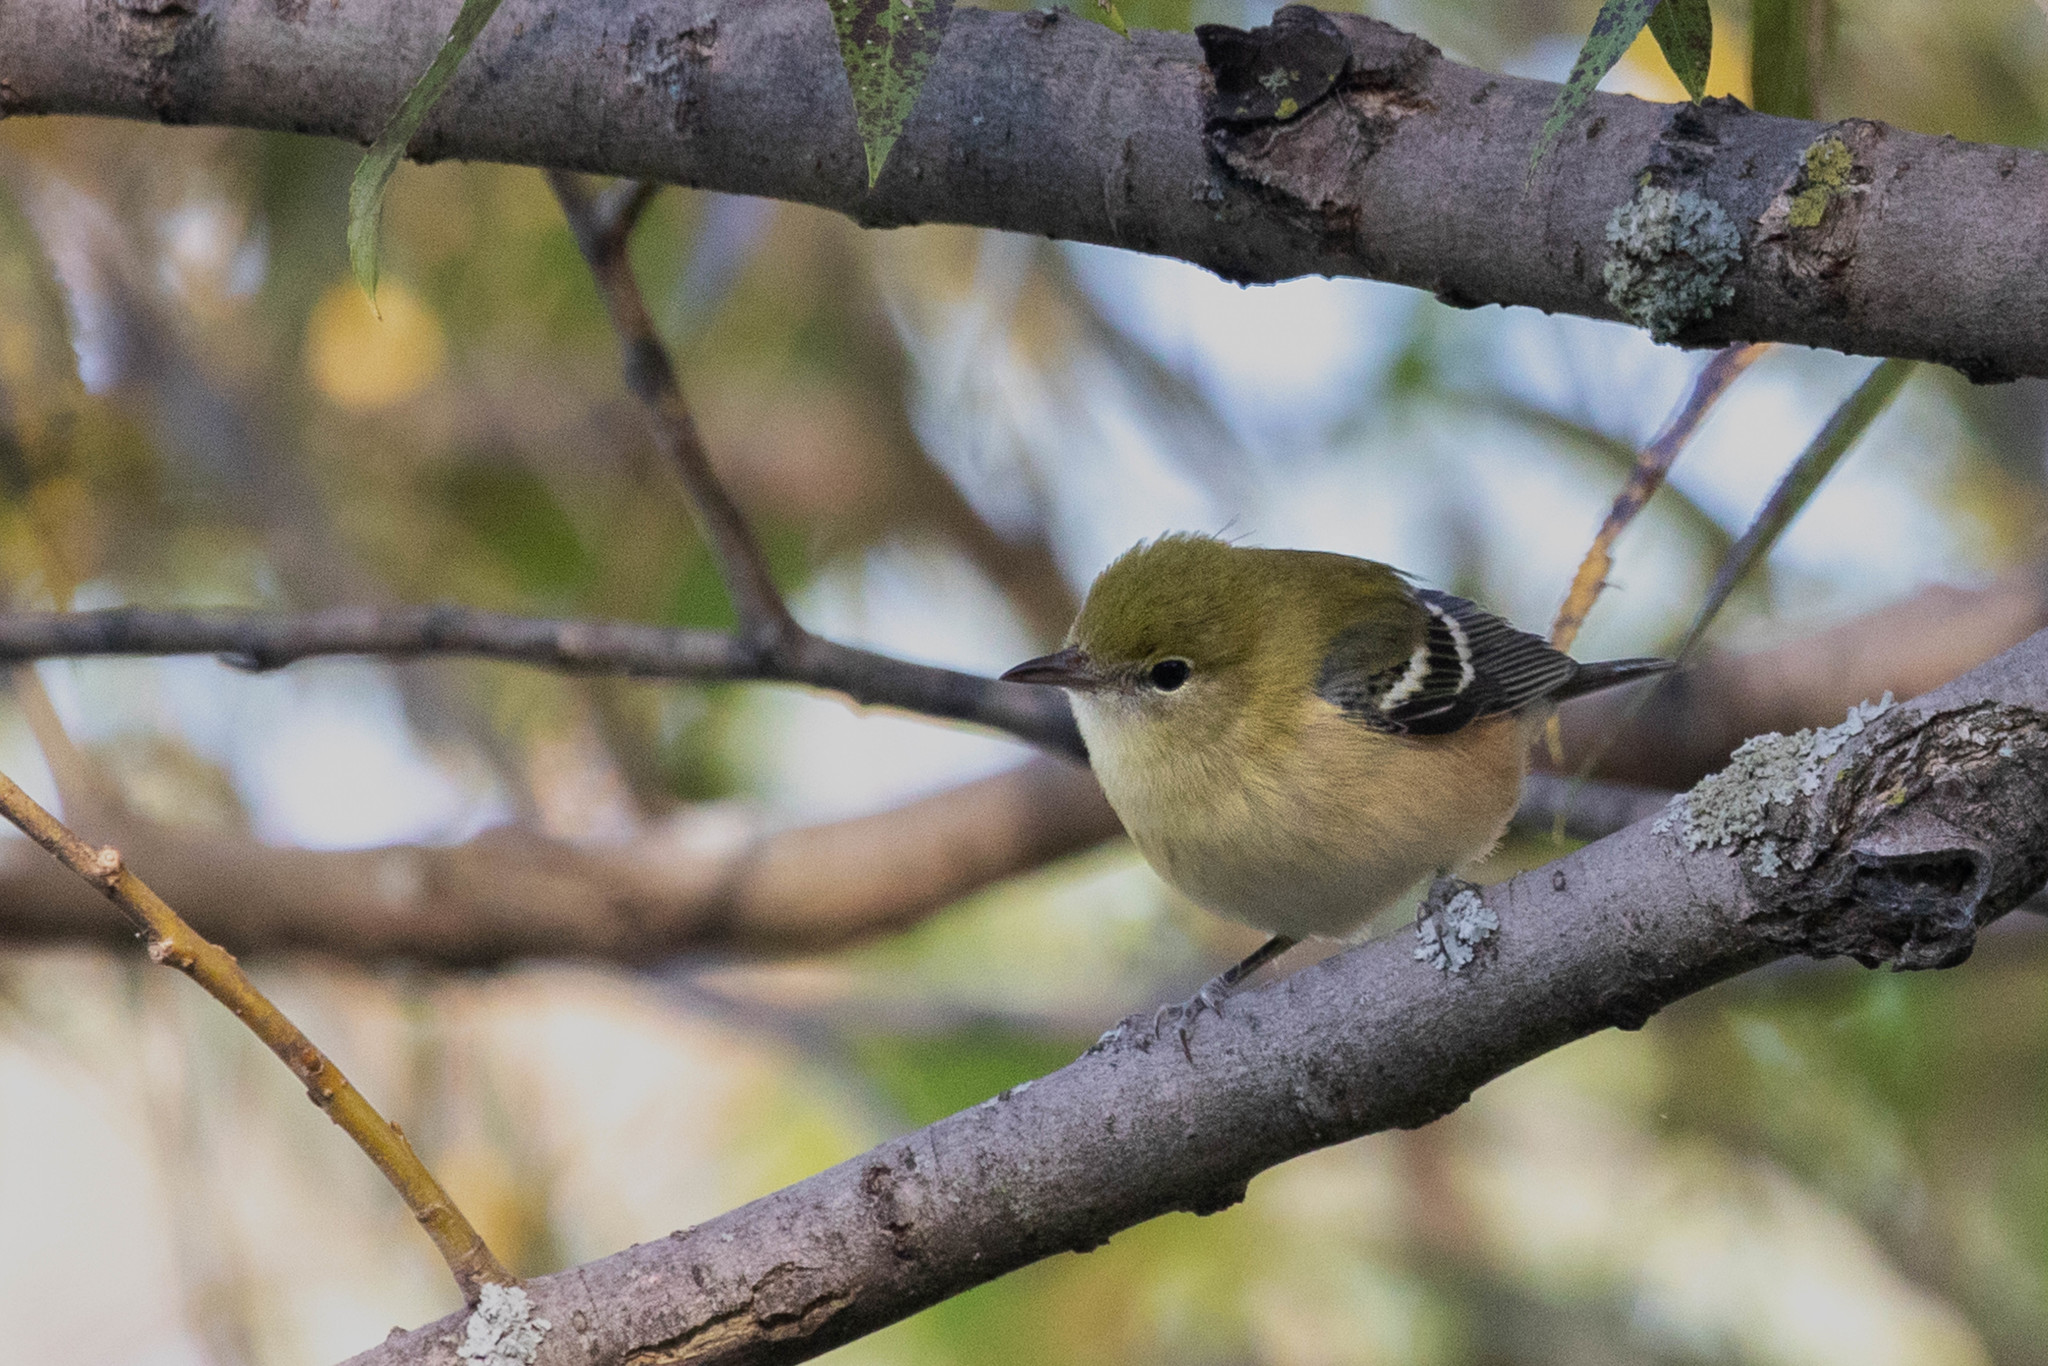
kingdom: Animalia
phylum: Chordata
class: Aves
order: Passeriformes
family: Parulidae
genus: Setophaga
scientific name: Setophaga castanea
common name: Bay-breasted warbler
